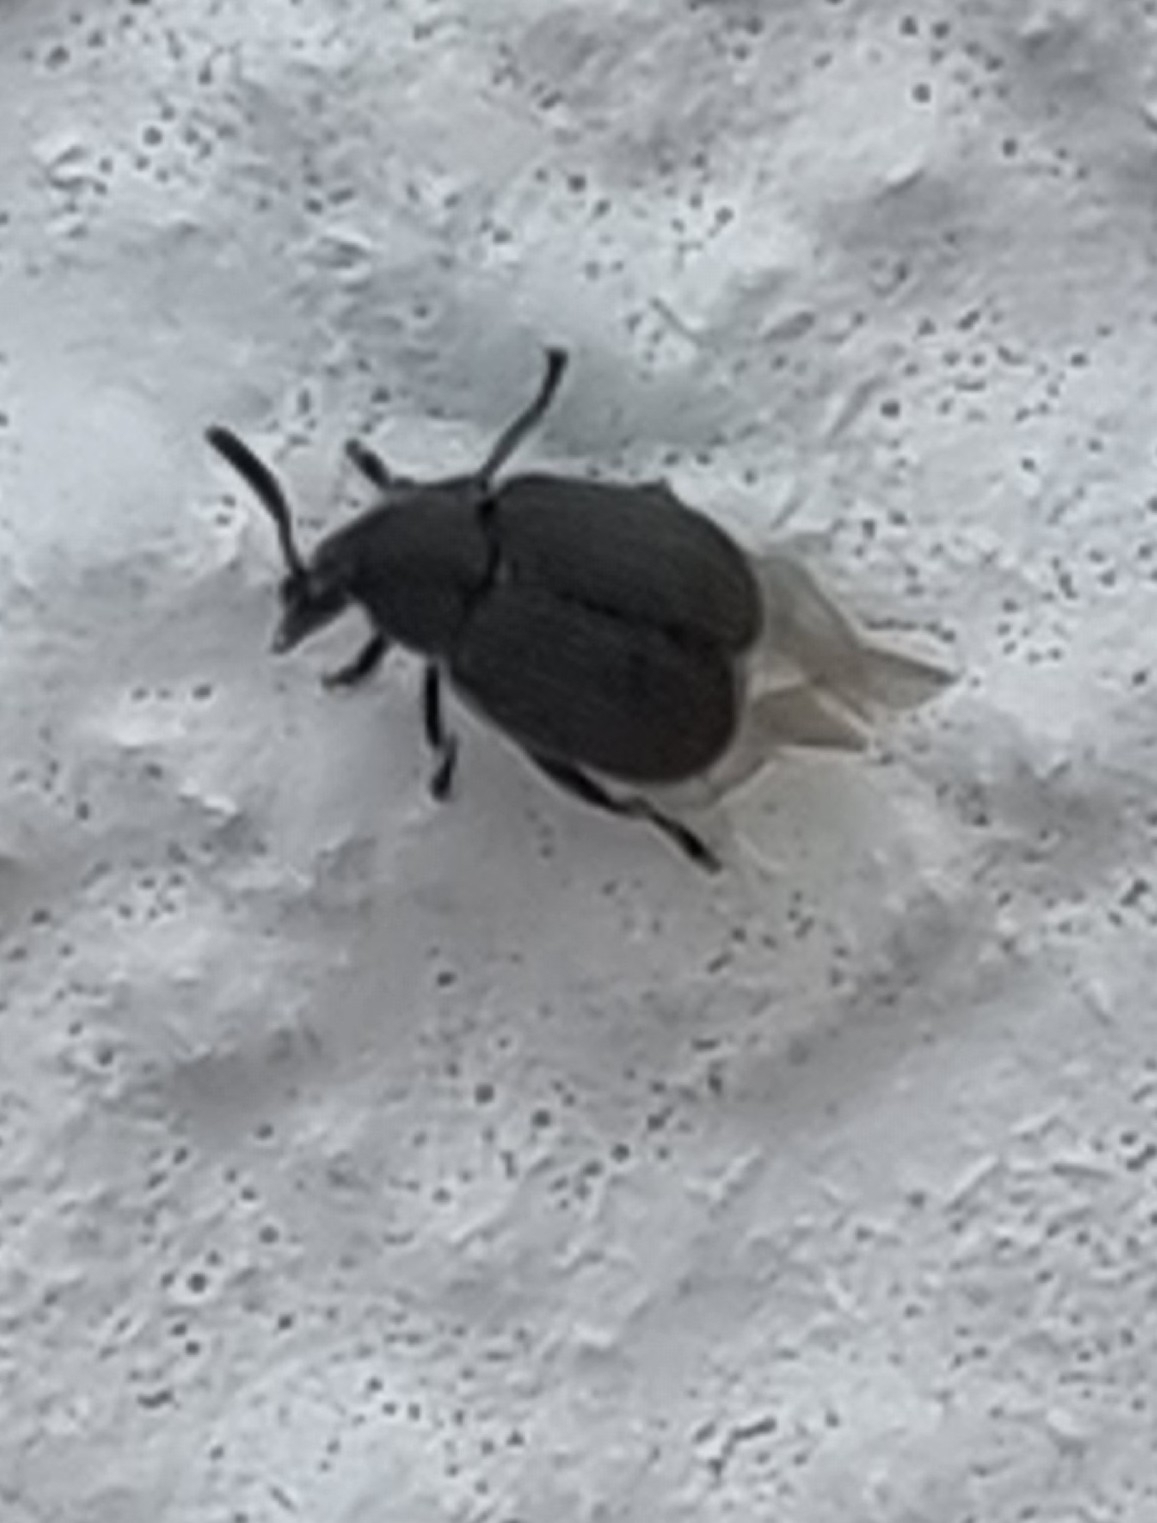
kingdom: Animalia
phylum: Arthropoda
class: Insecta
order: Coleoptera
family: Chrysomelidae
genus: Bruchidius
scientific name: Bruchidius villosus
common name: Scotch broom bruchid
